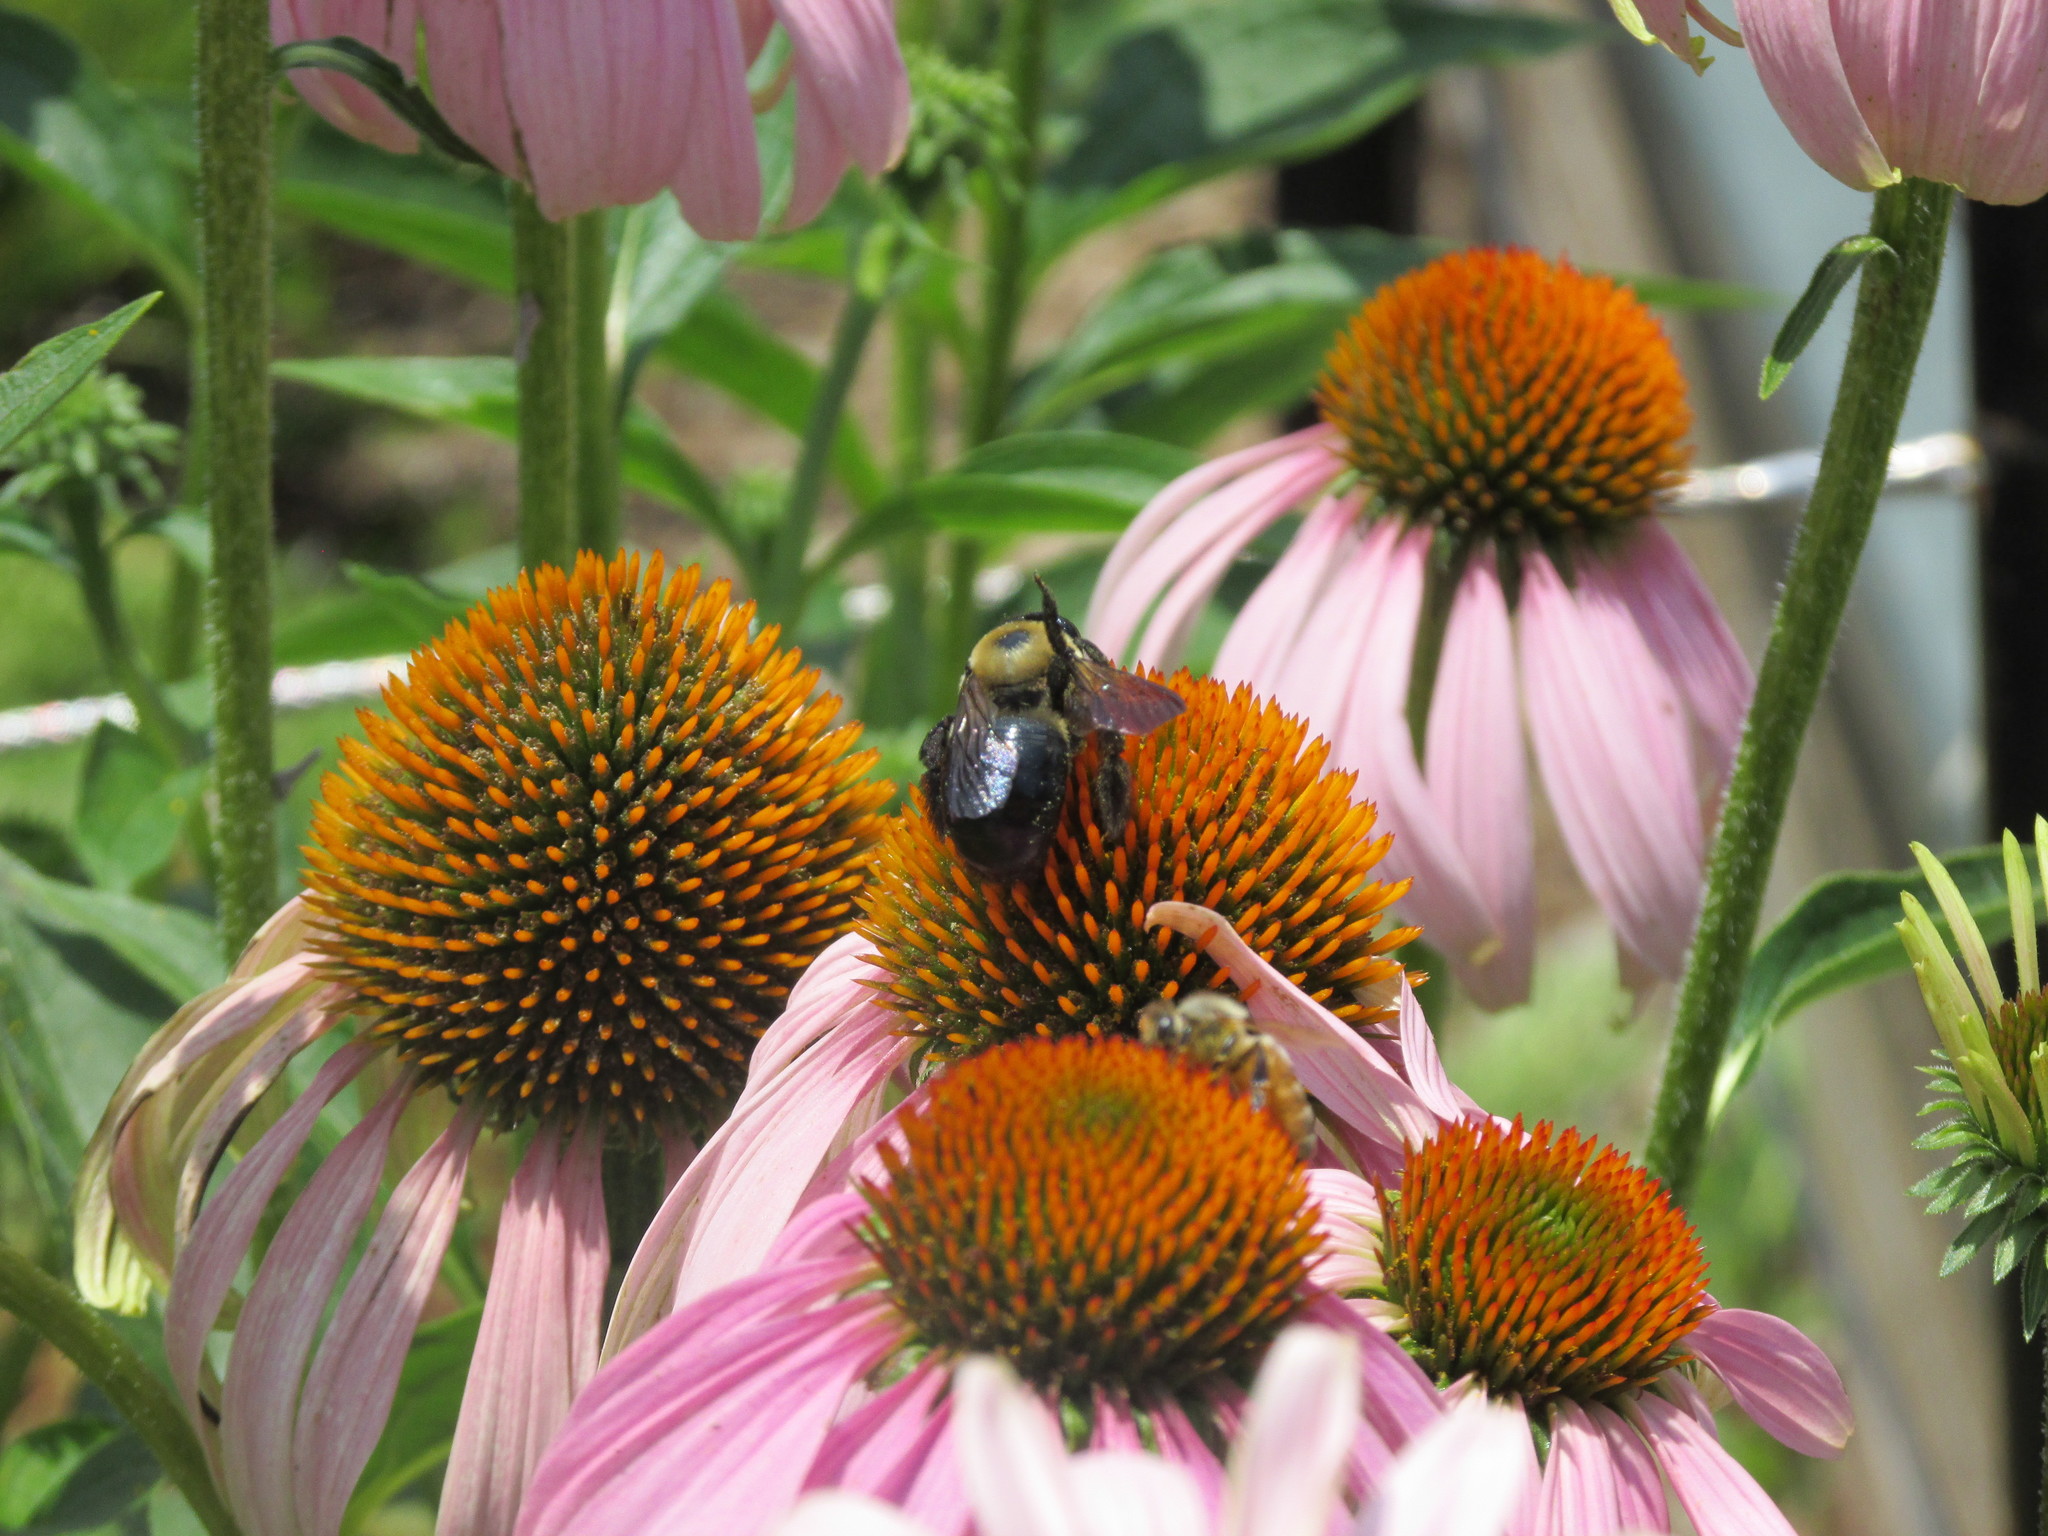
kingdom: Animalia
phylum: Arthropoda
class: Insecta
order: Hymenoptera
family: Apidae
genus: Xylocopa
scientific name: Xylocopa virginica
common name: Carpenter bee
